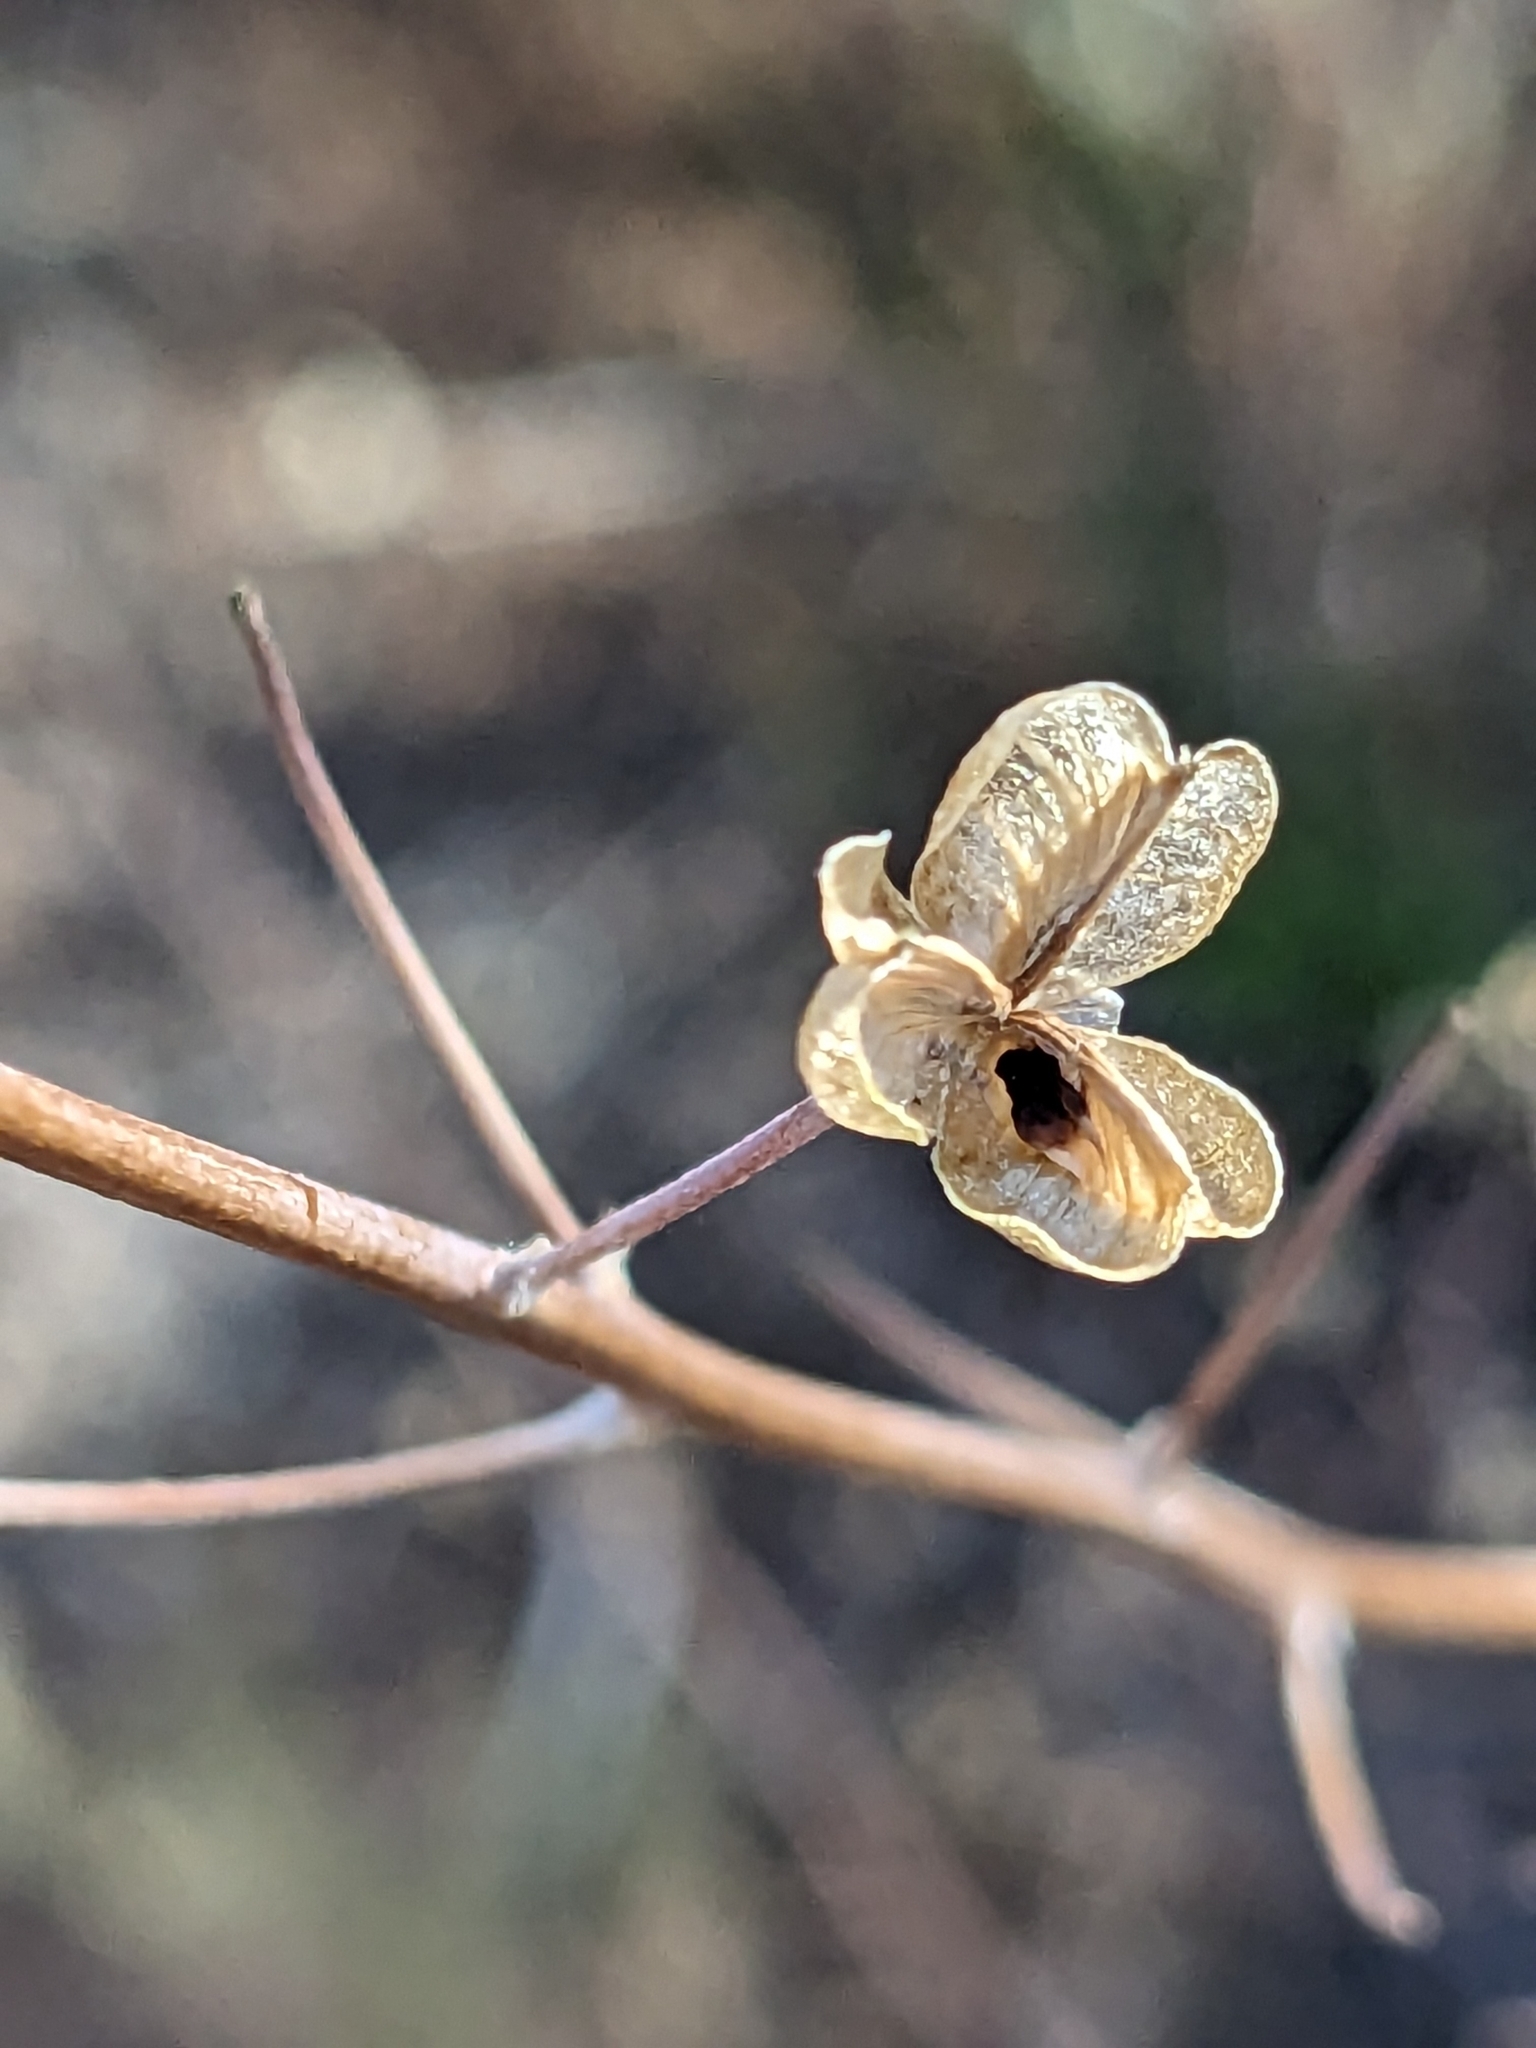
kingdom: Plantae
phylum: Tracheophyta
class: Liliopsida
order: Asparagales
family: Asparagaceae
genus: Chlorogalum
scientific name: Chlorogalum pomeridianum
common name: Amole
